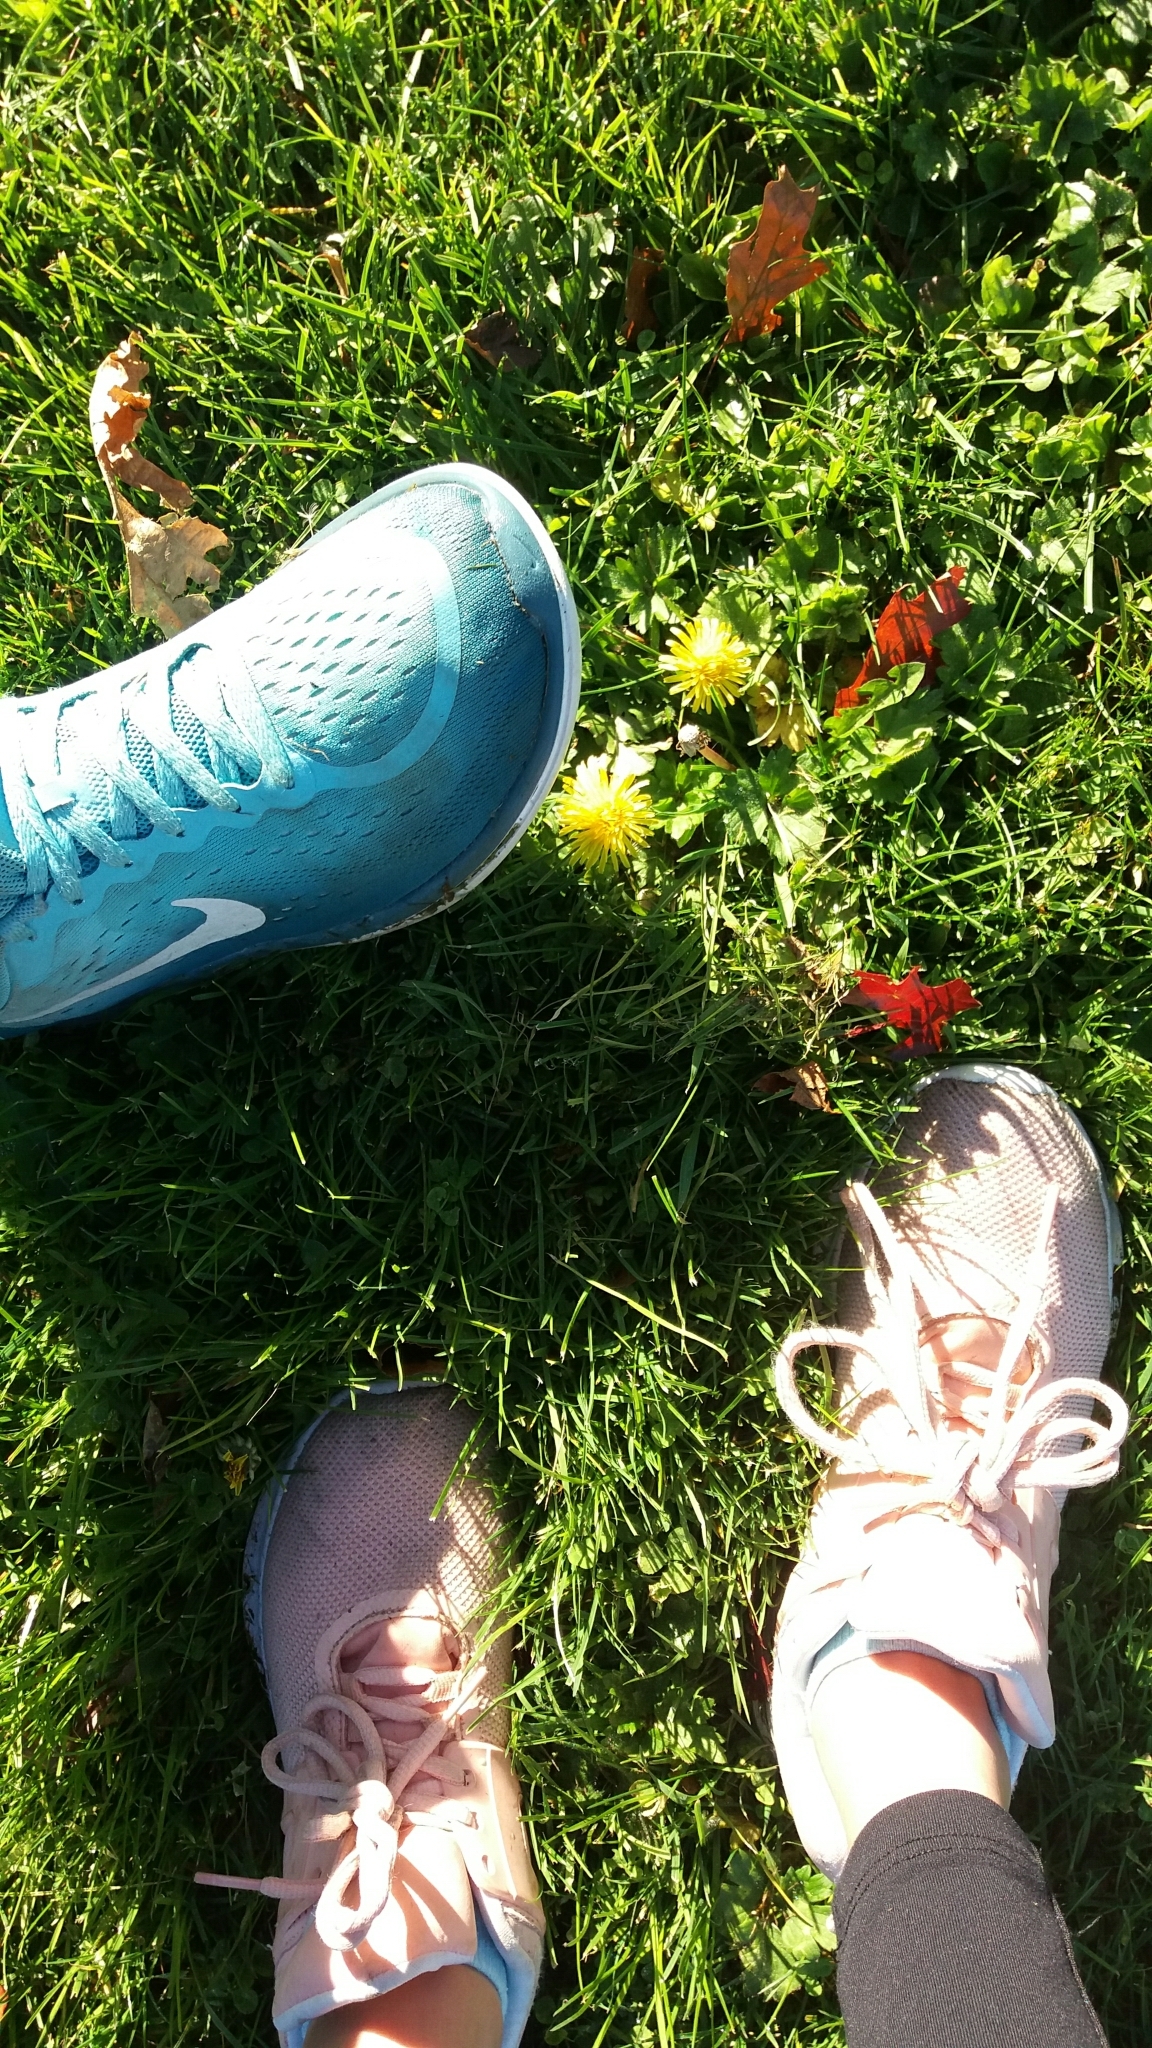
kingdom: Plantae
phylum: Tracheophyta
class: Magnoliopsida
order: Asterales
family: Asteraceae
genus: Taraxacum
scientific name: Taraxacum officinale
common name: Common dandelion
